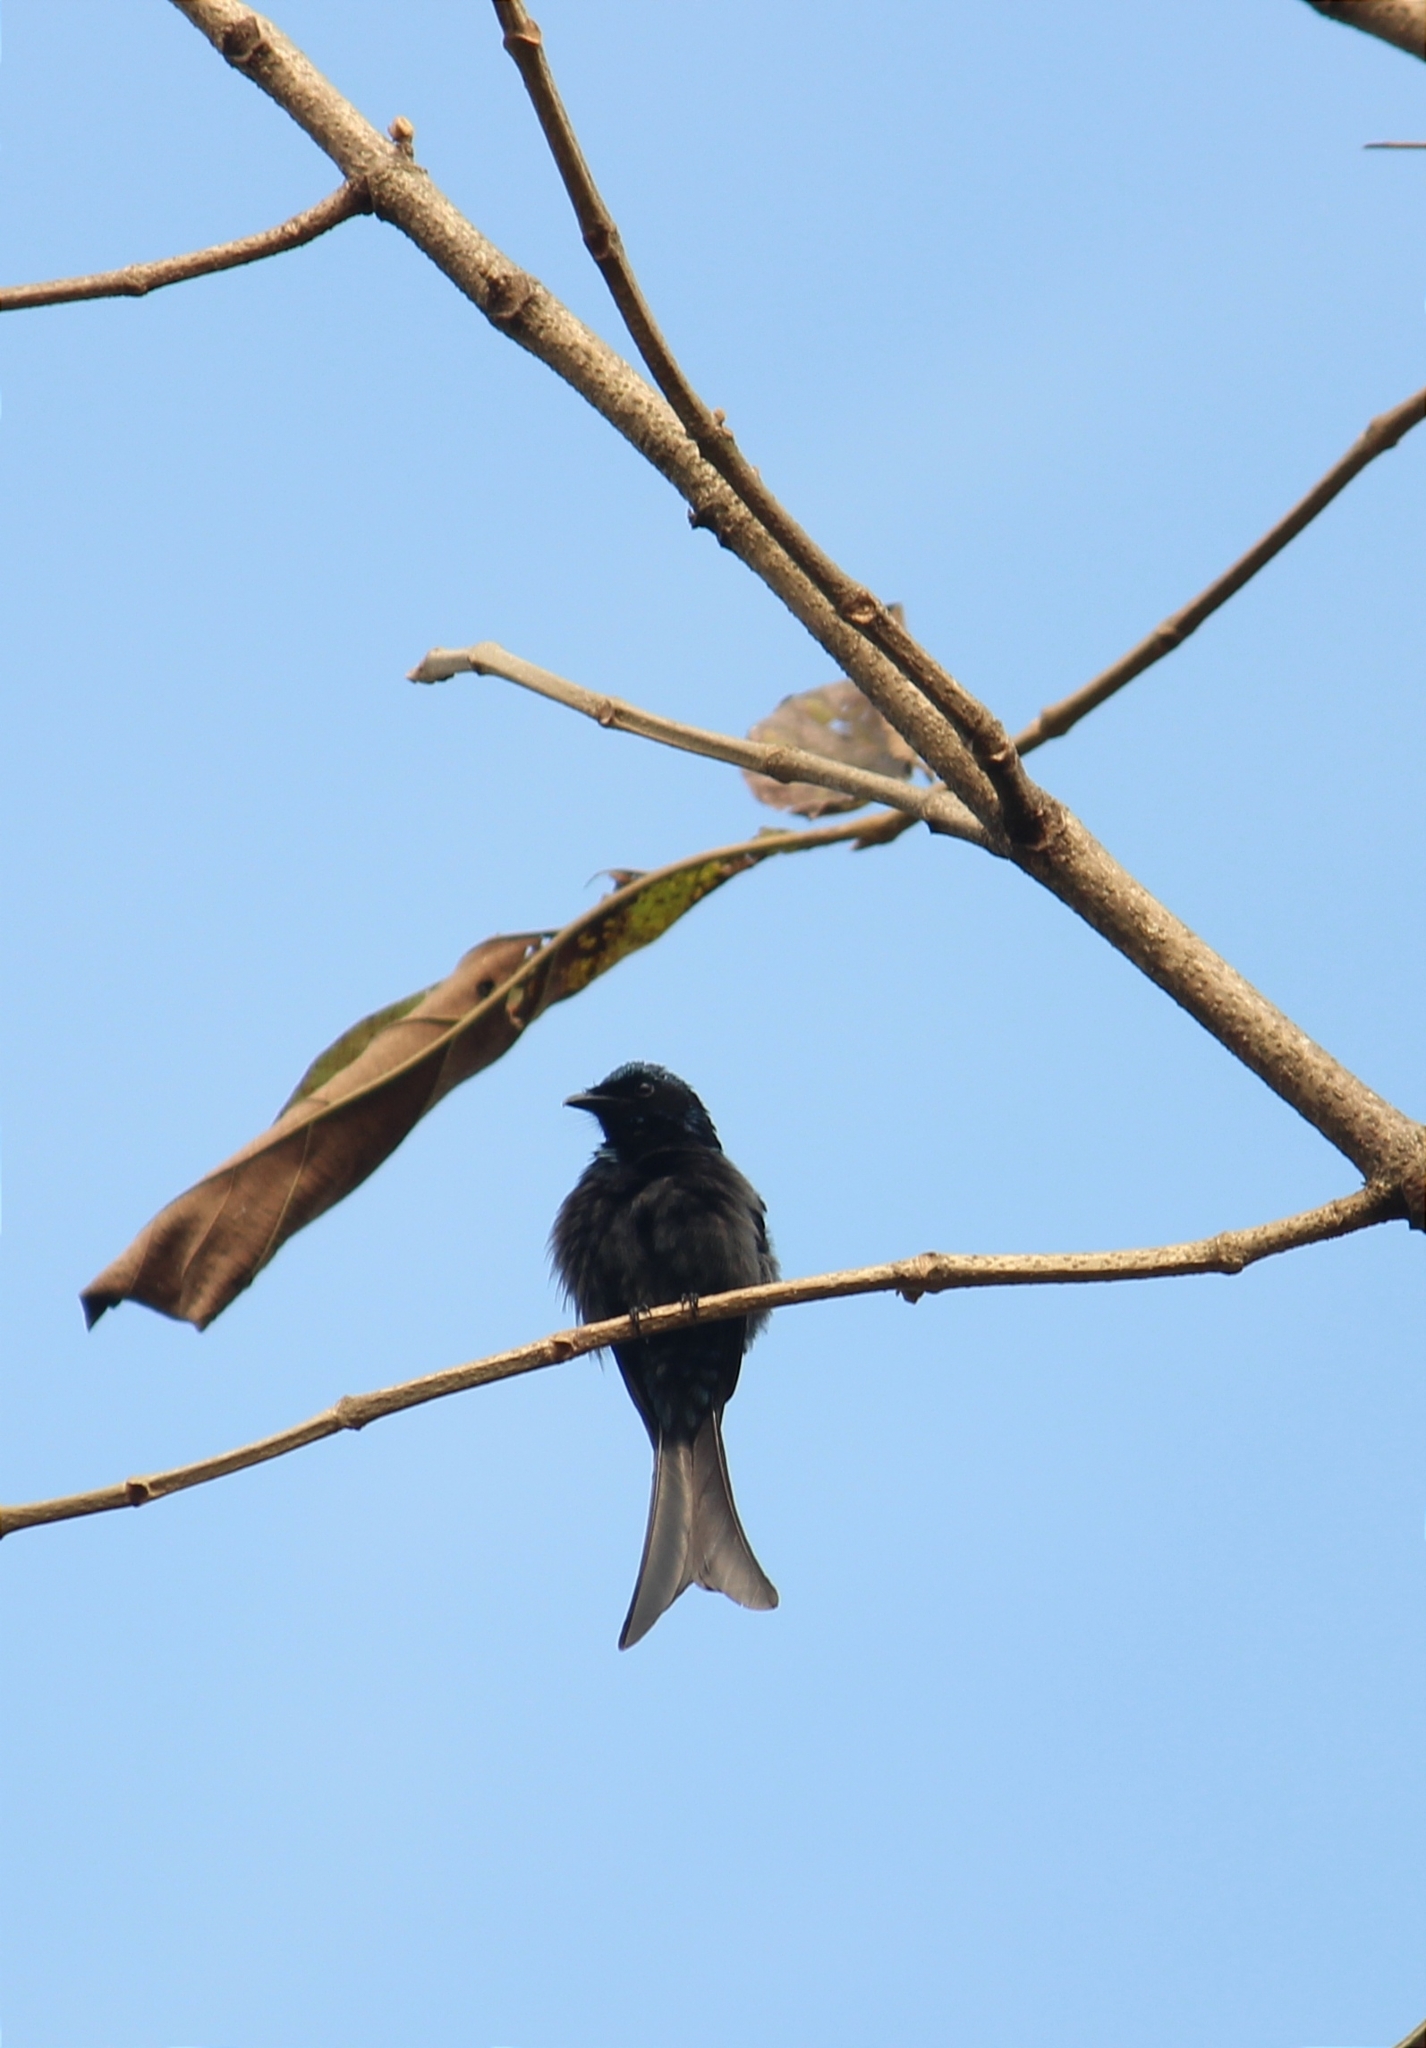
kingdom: Animalia
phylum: Chordata
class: Aves
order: Passeriformes
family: Dicruridae
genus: Dicrurus
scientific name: Dicrurus aeneus
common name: Bronzed drongo
